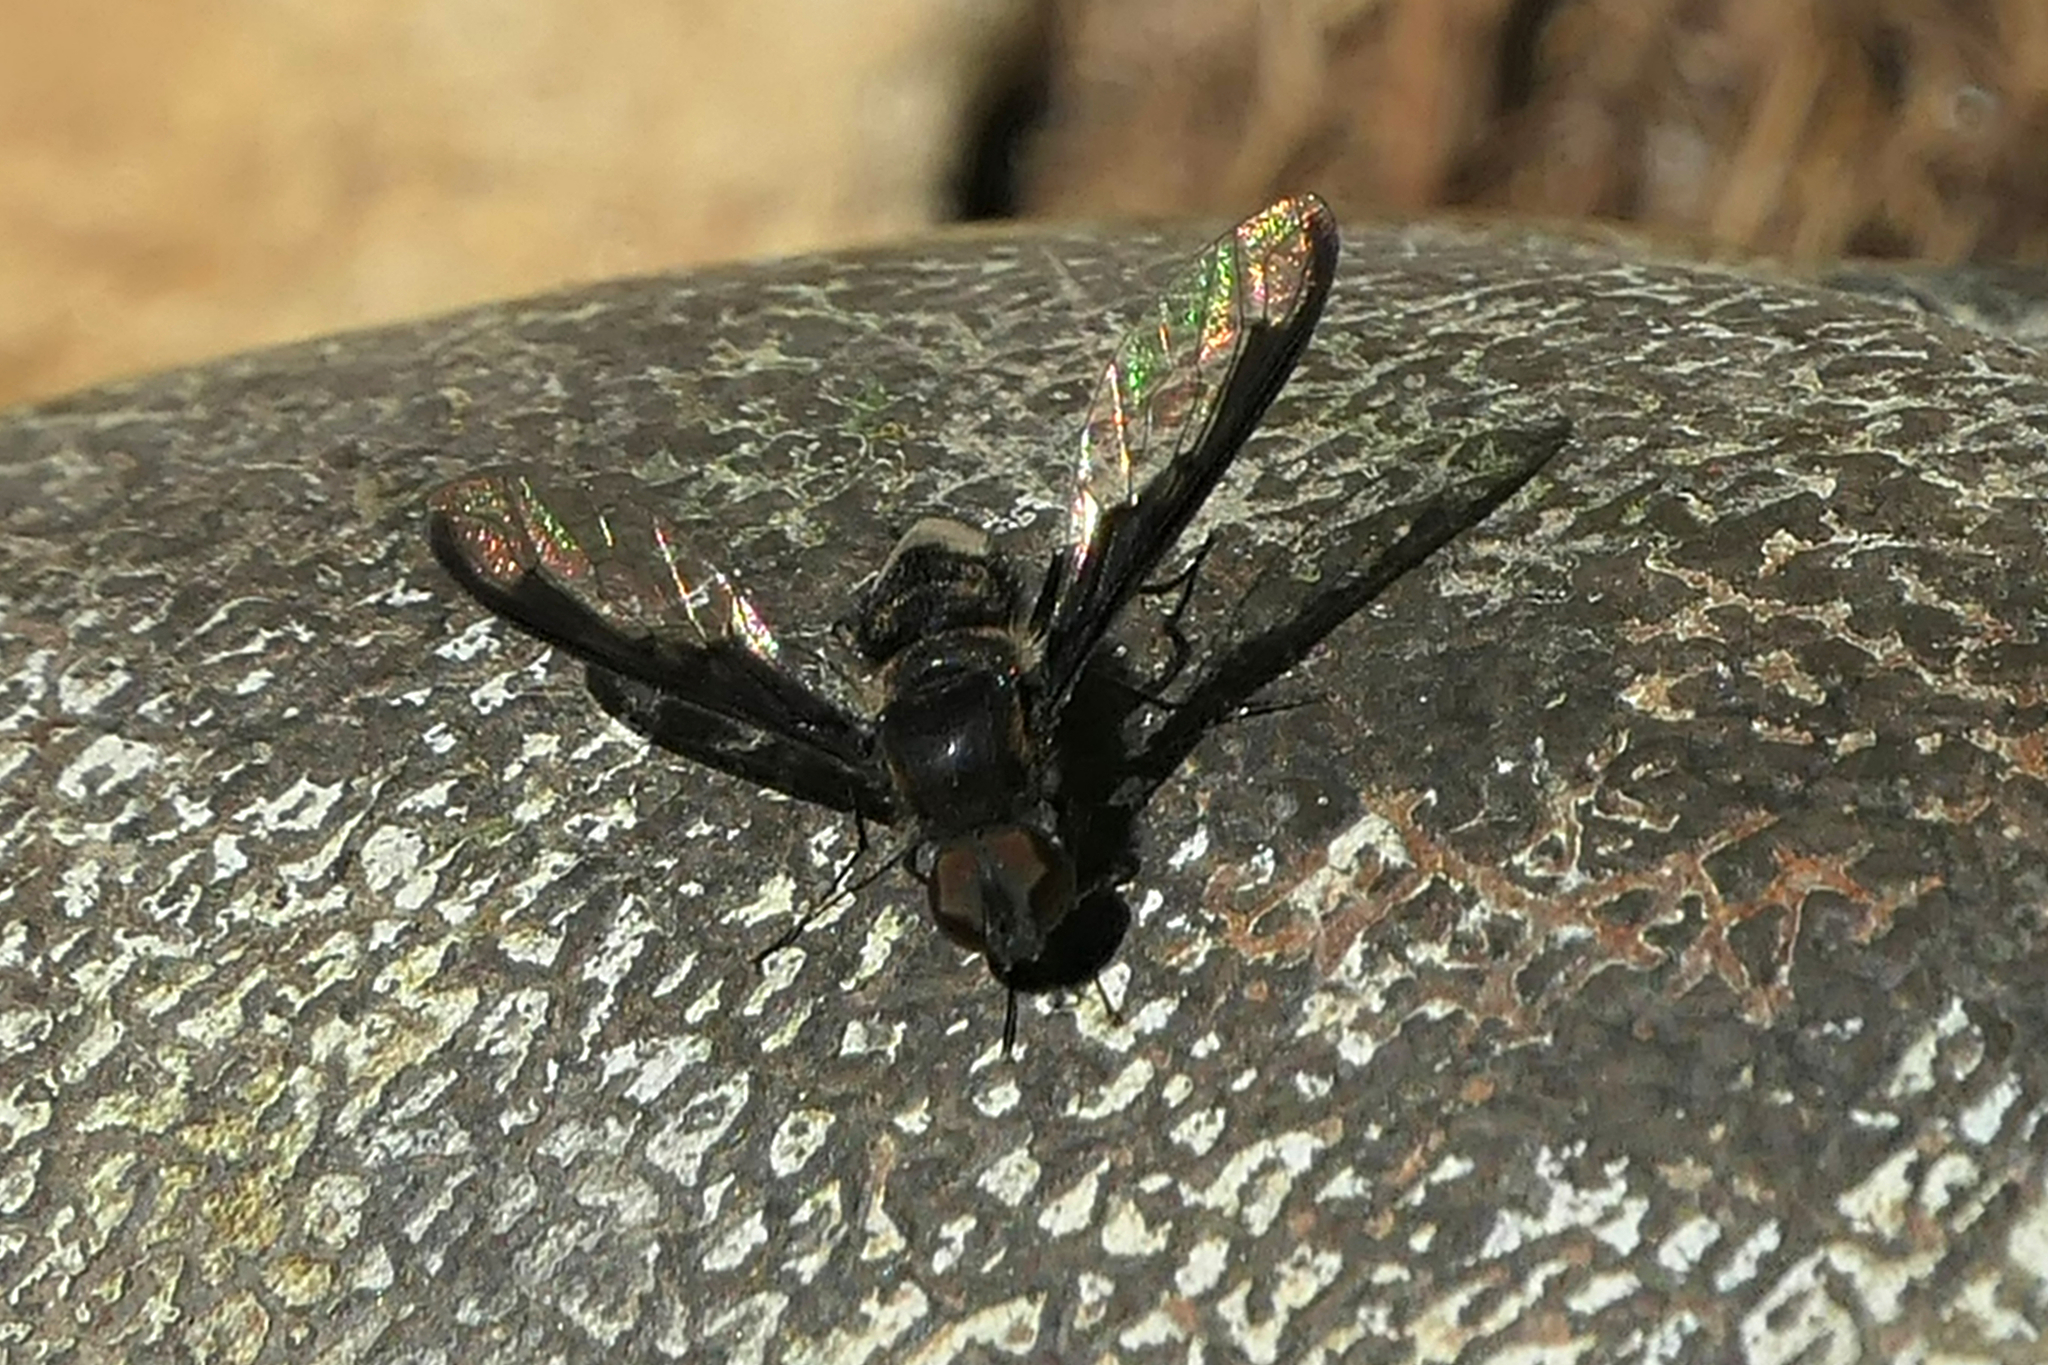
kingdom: Animalia
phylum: Arthropoda
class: Insecta
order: Diptera
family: Bombyliidae
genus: Anthrax
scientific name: Anthrax argyropygus
